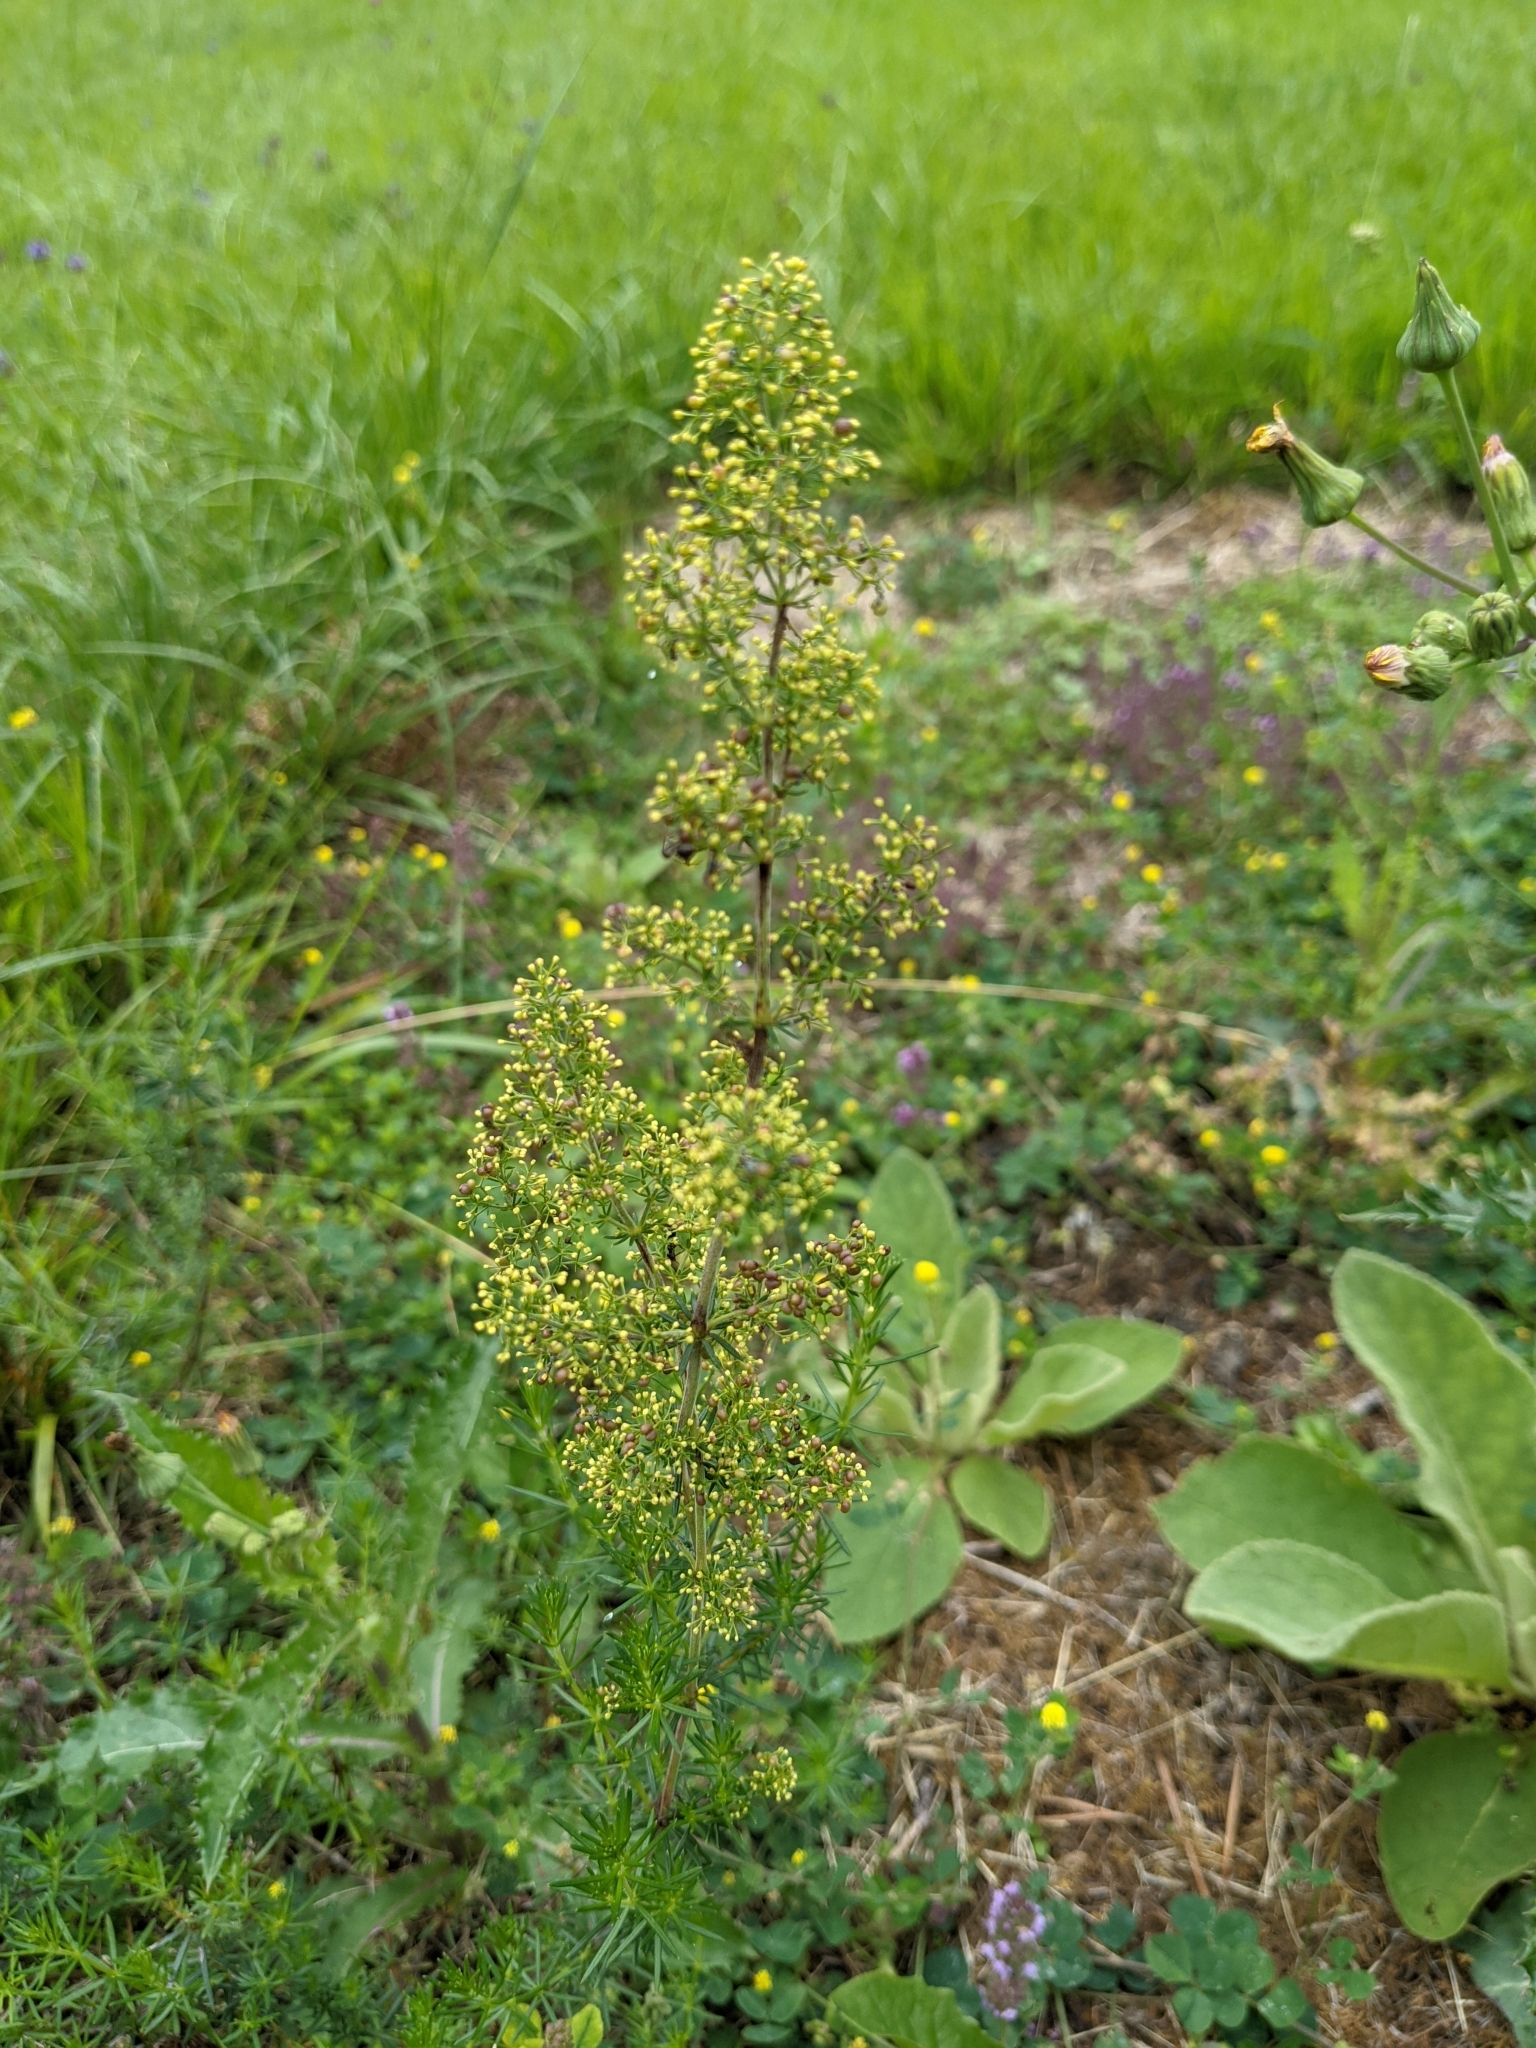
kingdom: Plantae
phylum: Tracheophyta
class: Magnoliopsida
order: Gentianales
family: Rubiaceae
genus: Galium
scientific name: Galium verum
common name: Lady's bedstraw
